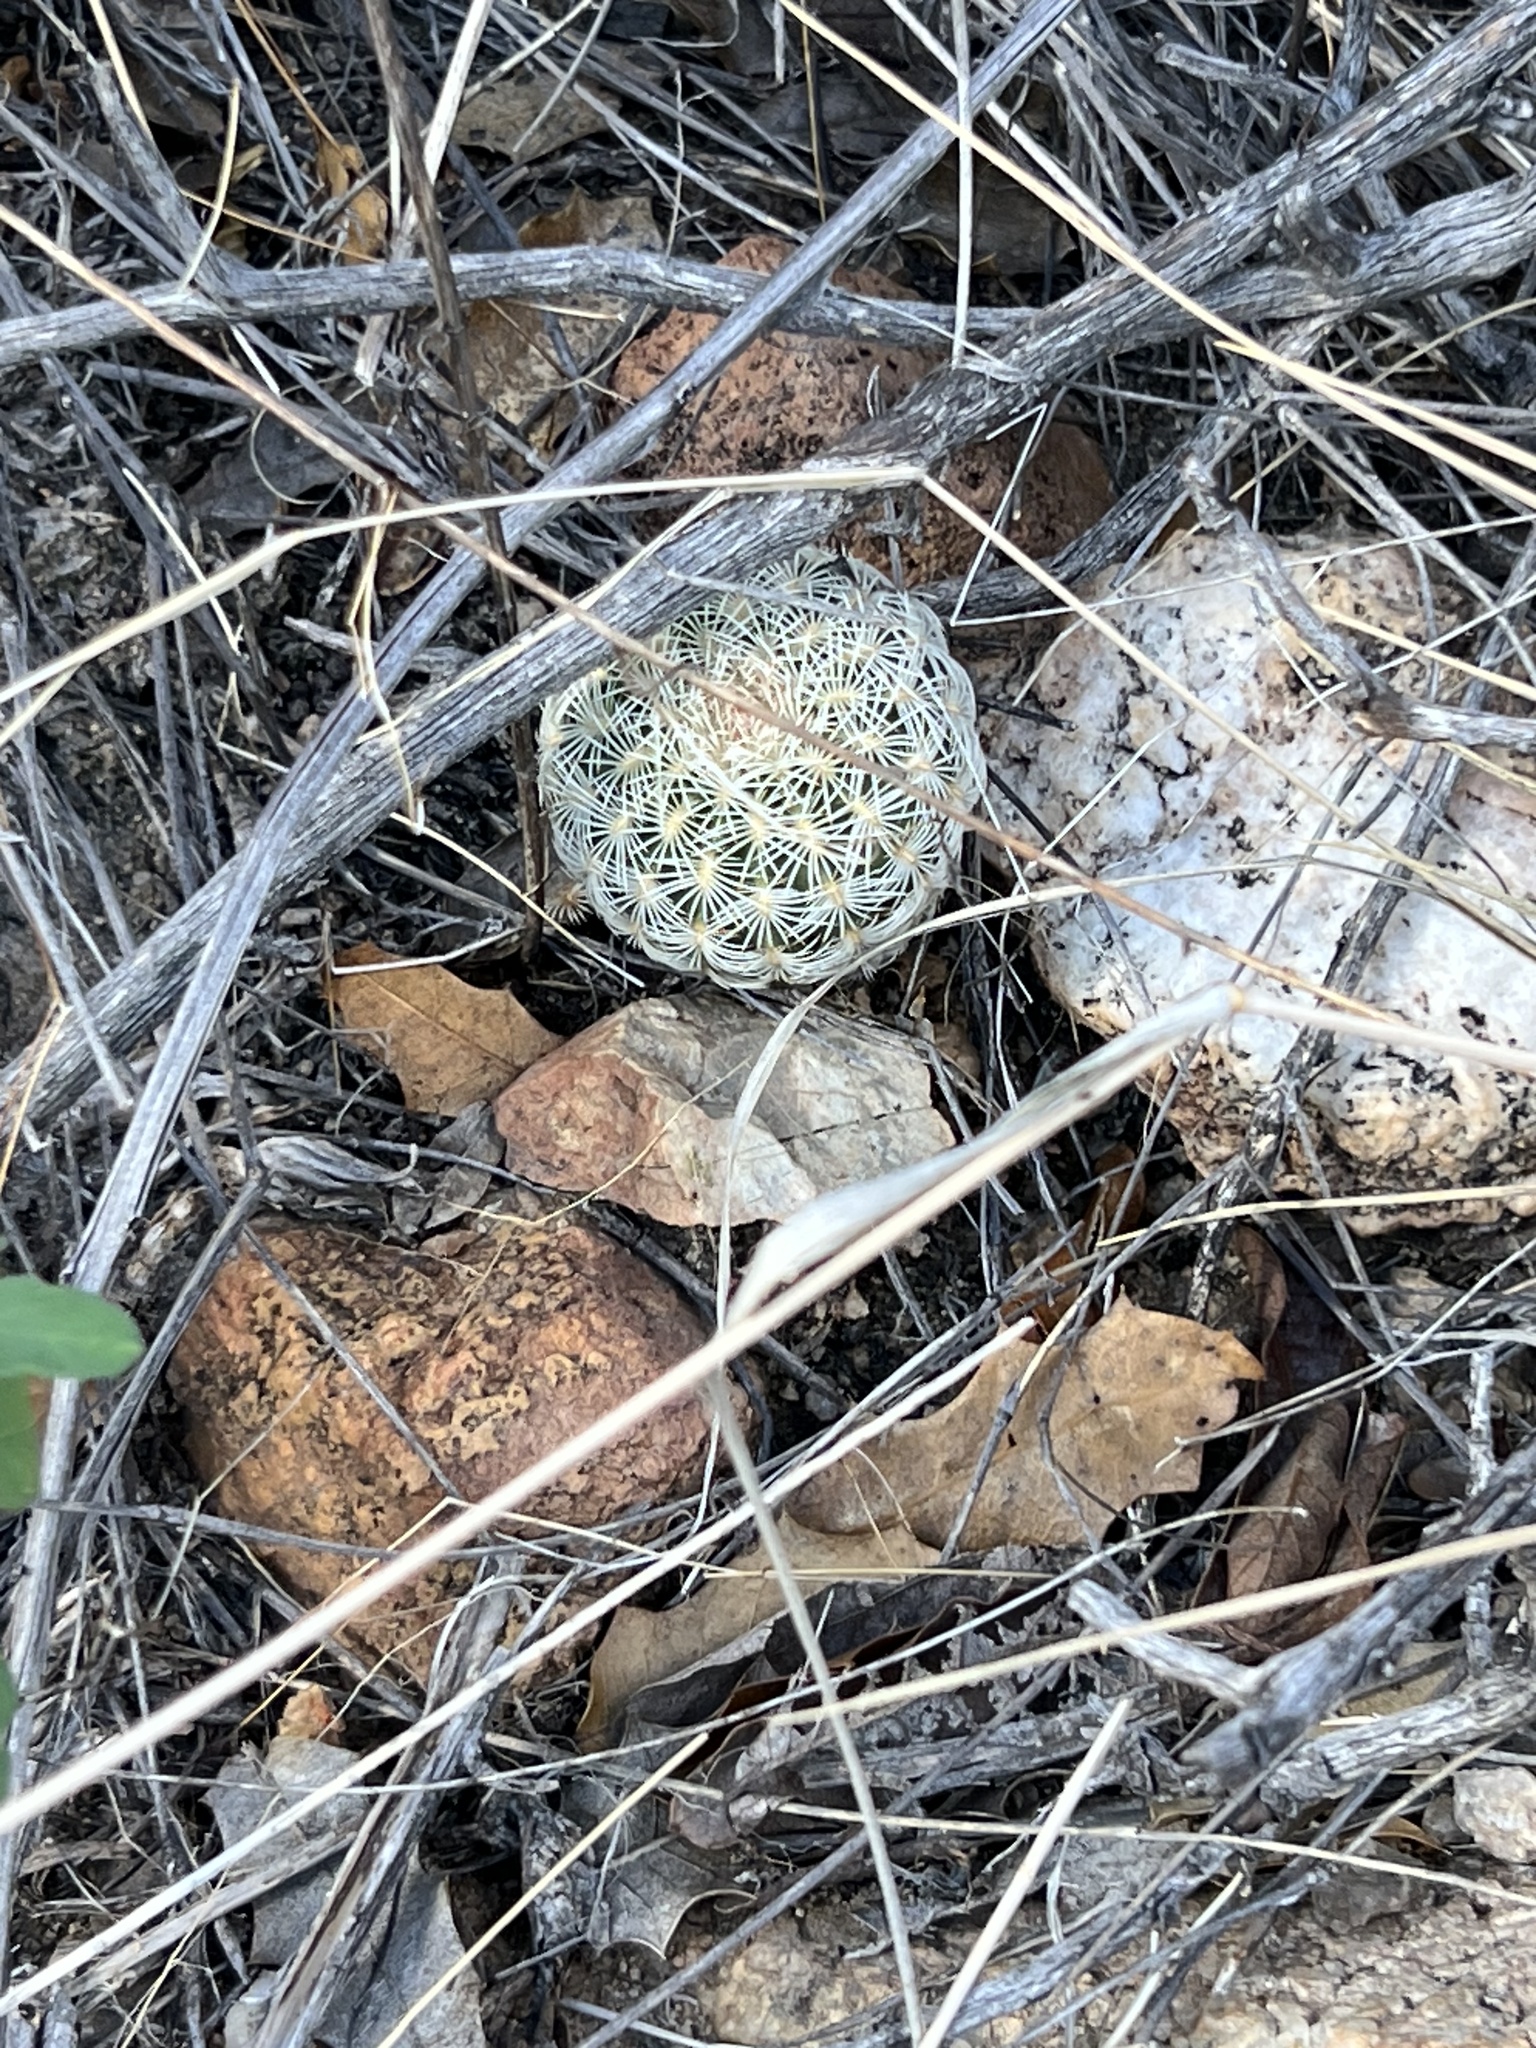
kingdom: Plantae
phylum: Tracheophyta
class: Magnoliopsida
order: Caryophyllales
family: Cactaceae
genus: Echinocereus
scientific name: Echinocereus rigidissimus
